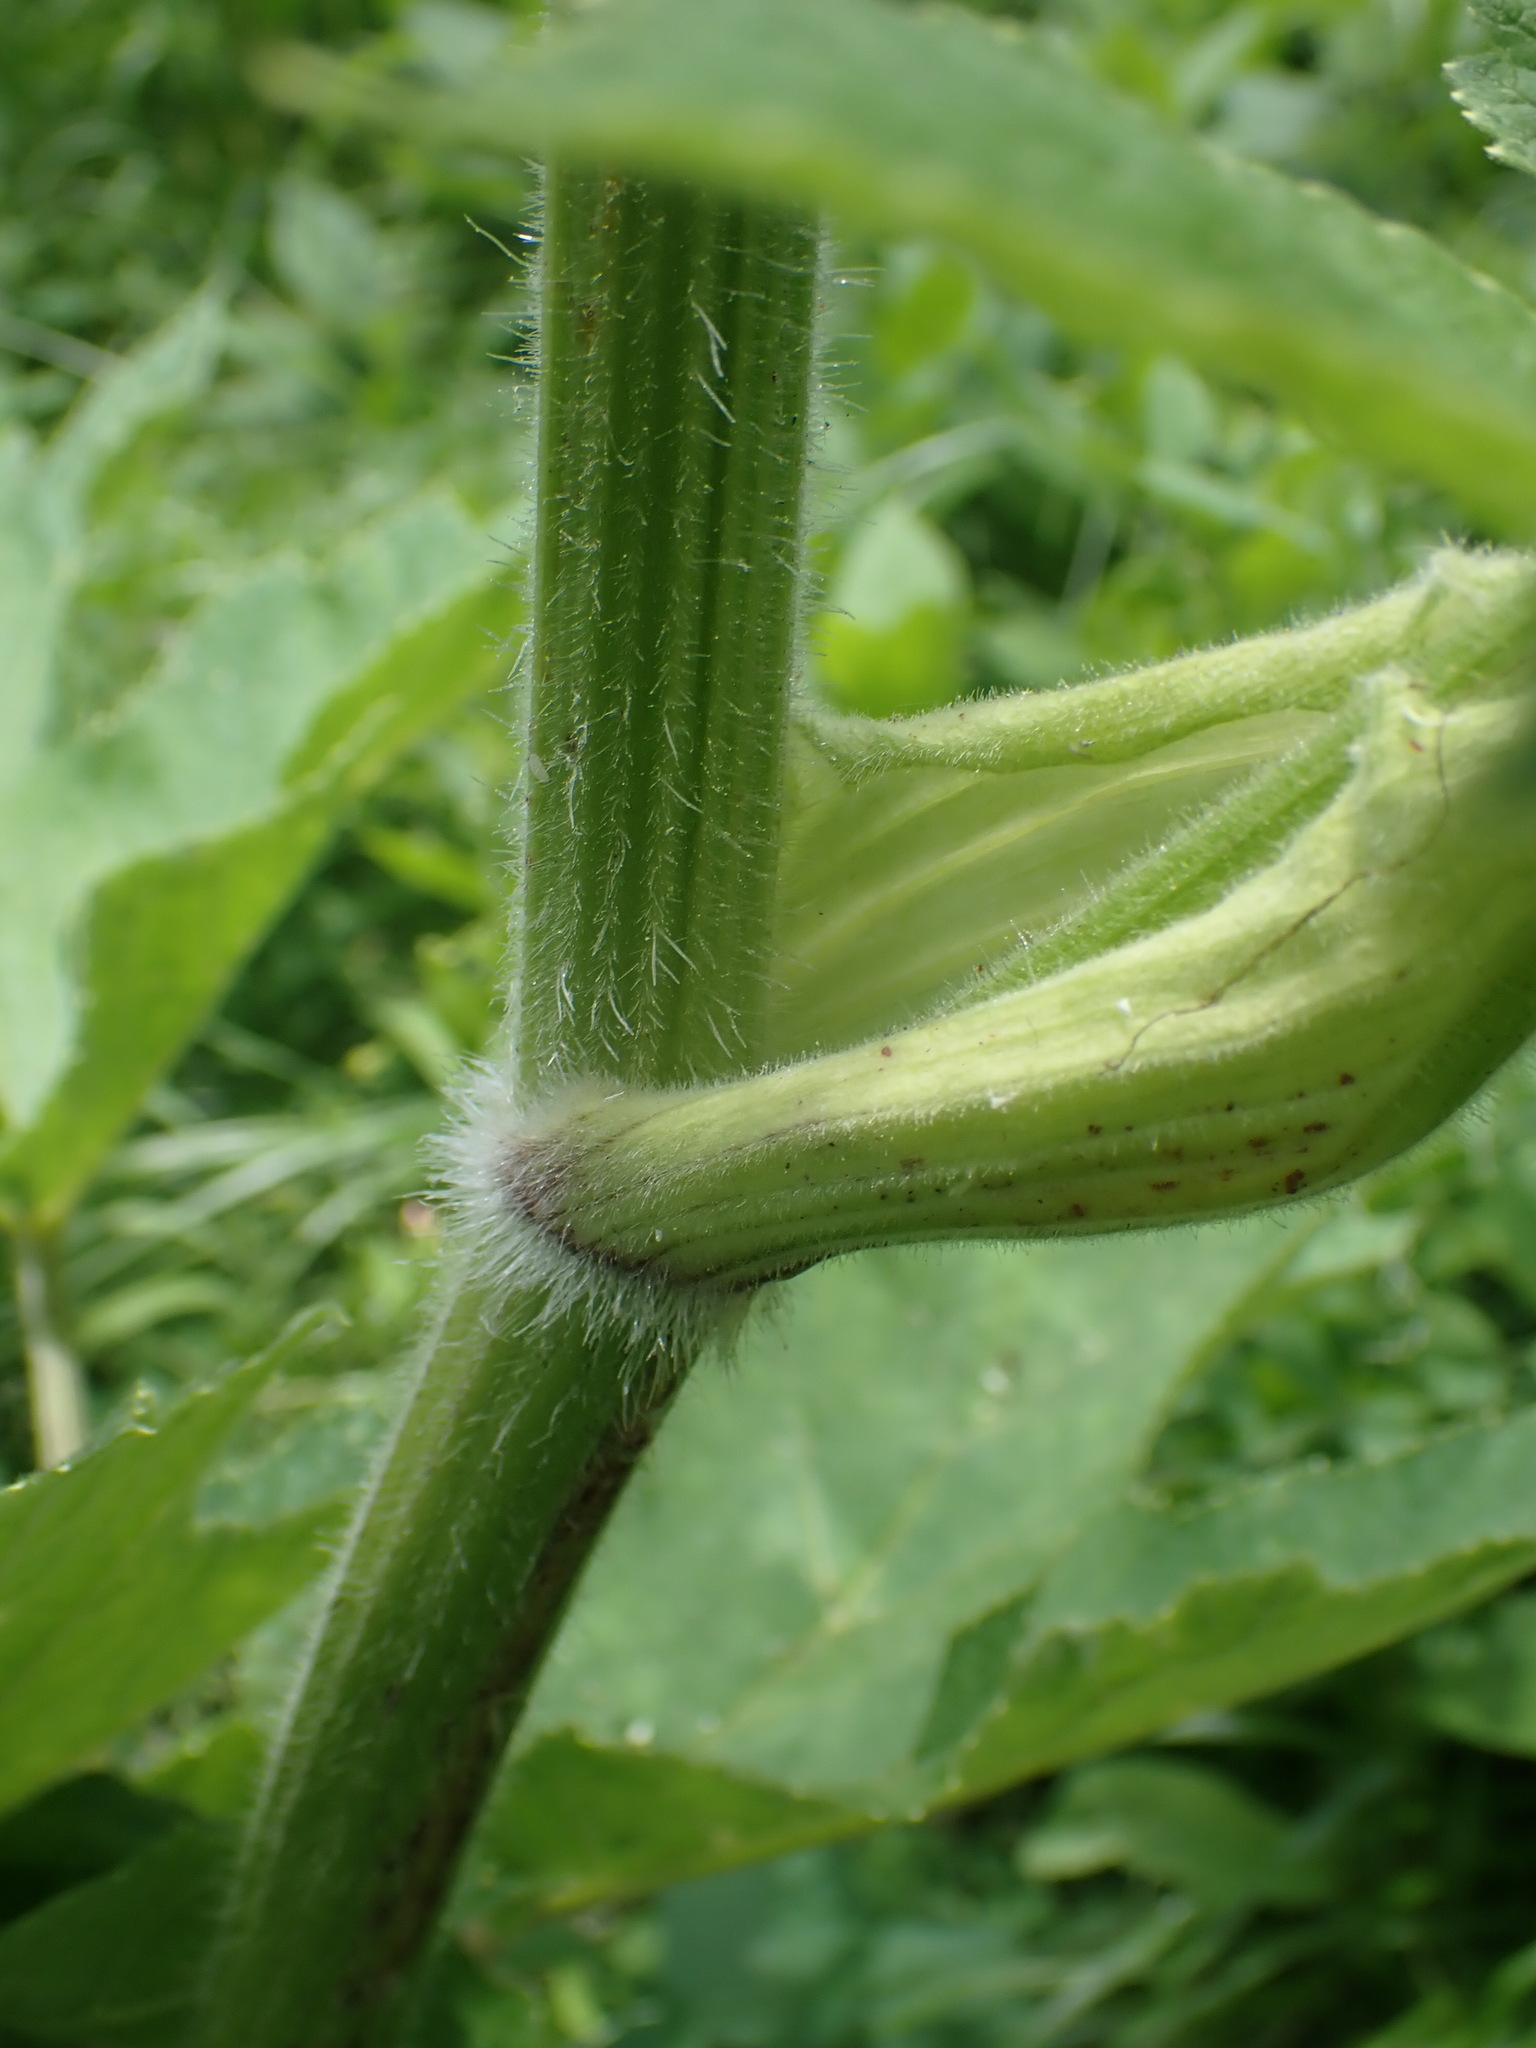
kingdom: Plantae
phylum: Tracheophyta
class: Magnoliopsida
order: Apiales
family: Apiaceae
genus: Heracleum
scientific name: Heracleum maximum
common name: American cow parsnip
